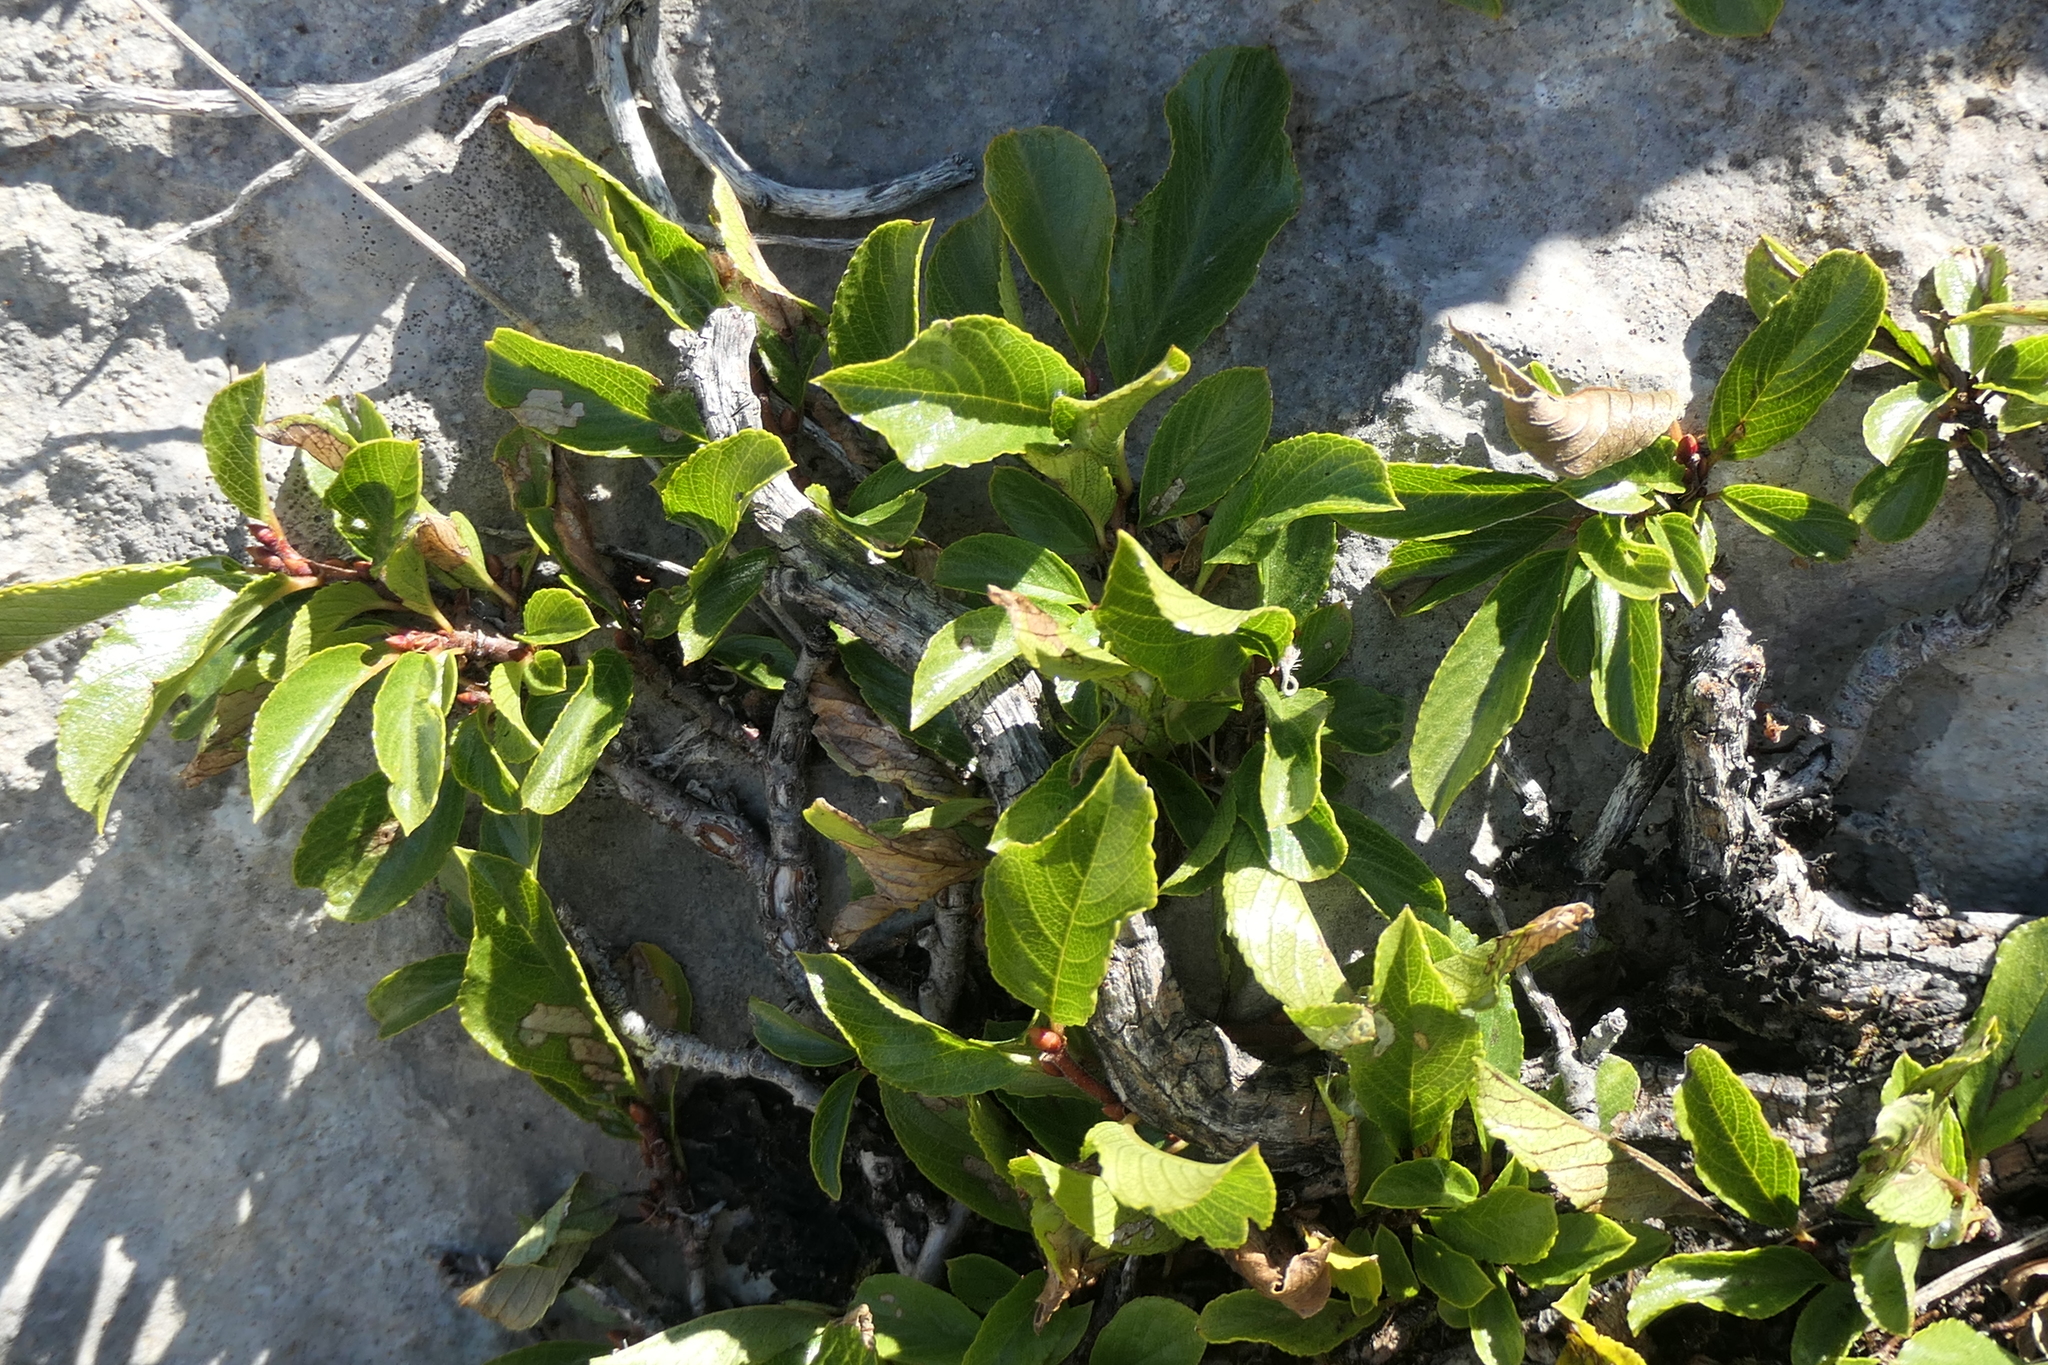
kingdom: Plantae
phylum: Tracheophyta
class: Magnoliopsida
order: Rosales
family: Rhamnaceae
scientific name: Rhamnaceae
